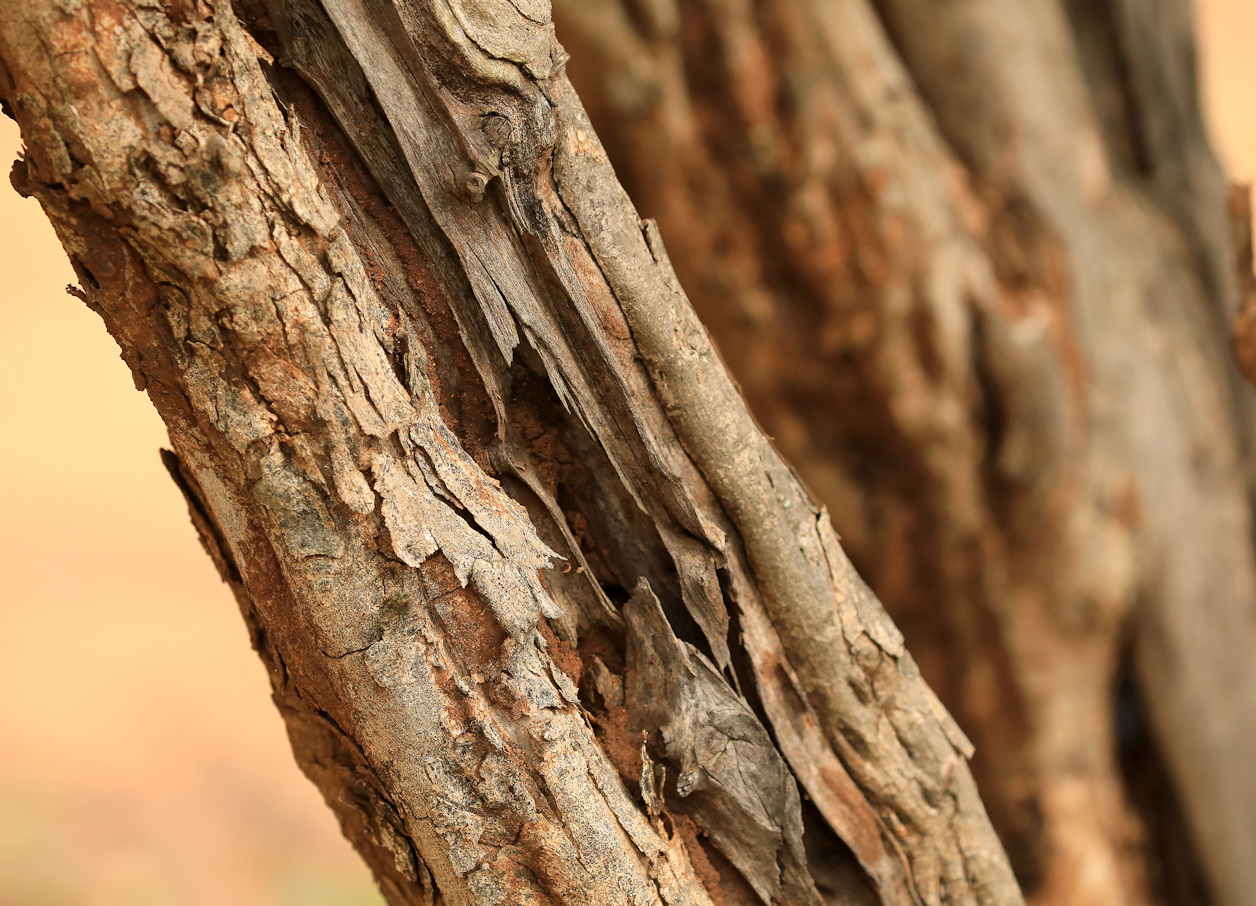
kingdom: Plantae
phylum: Tracheophyta
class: Magnoliopsida
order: Fabales
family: Fabaceae
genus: Dalbergia
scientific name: Dalbergia melanoxylon
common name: African blackwood
